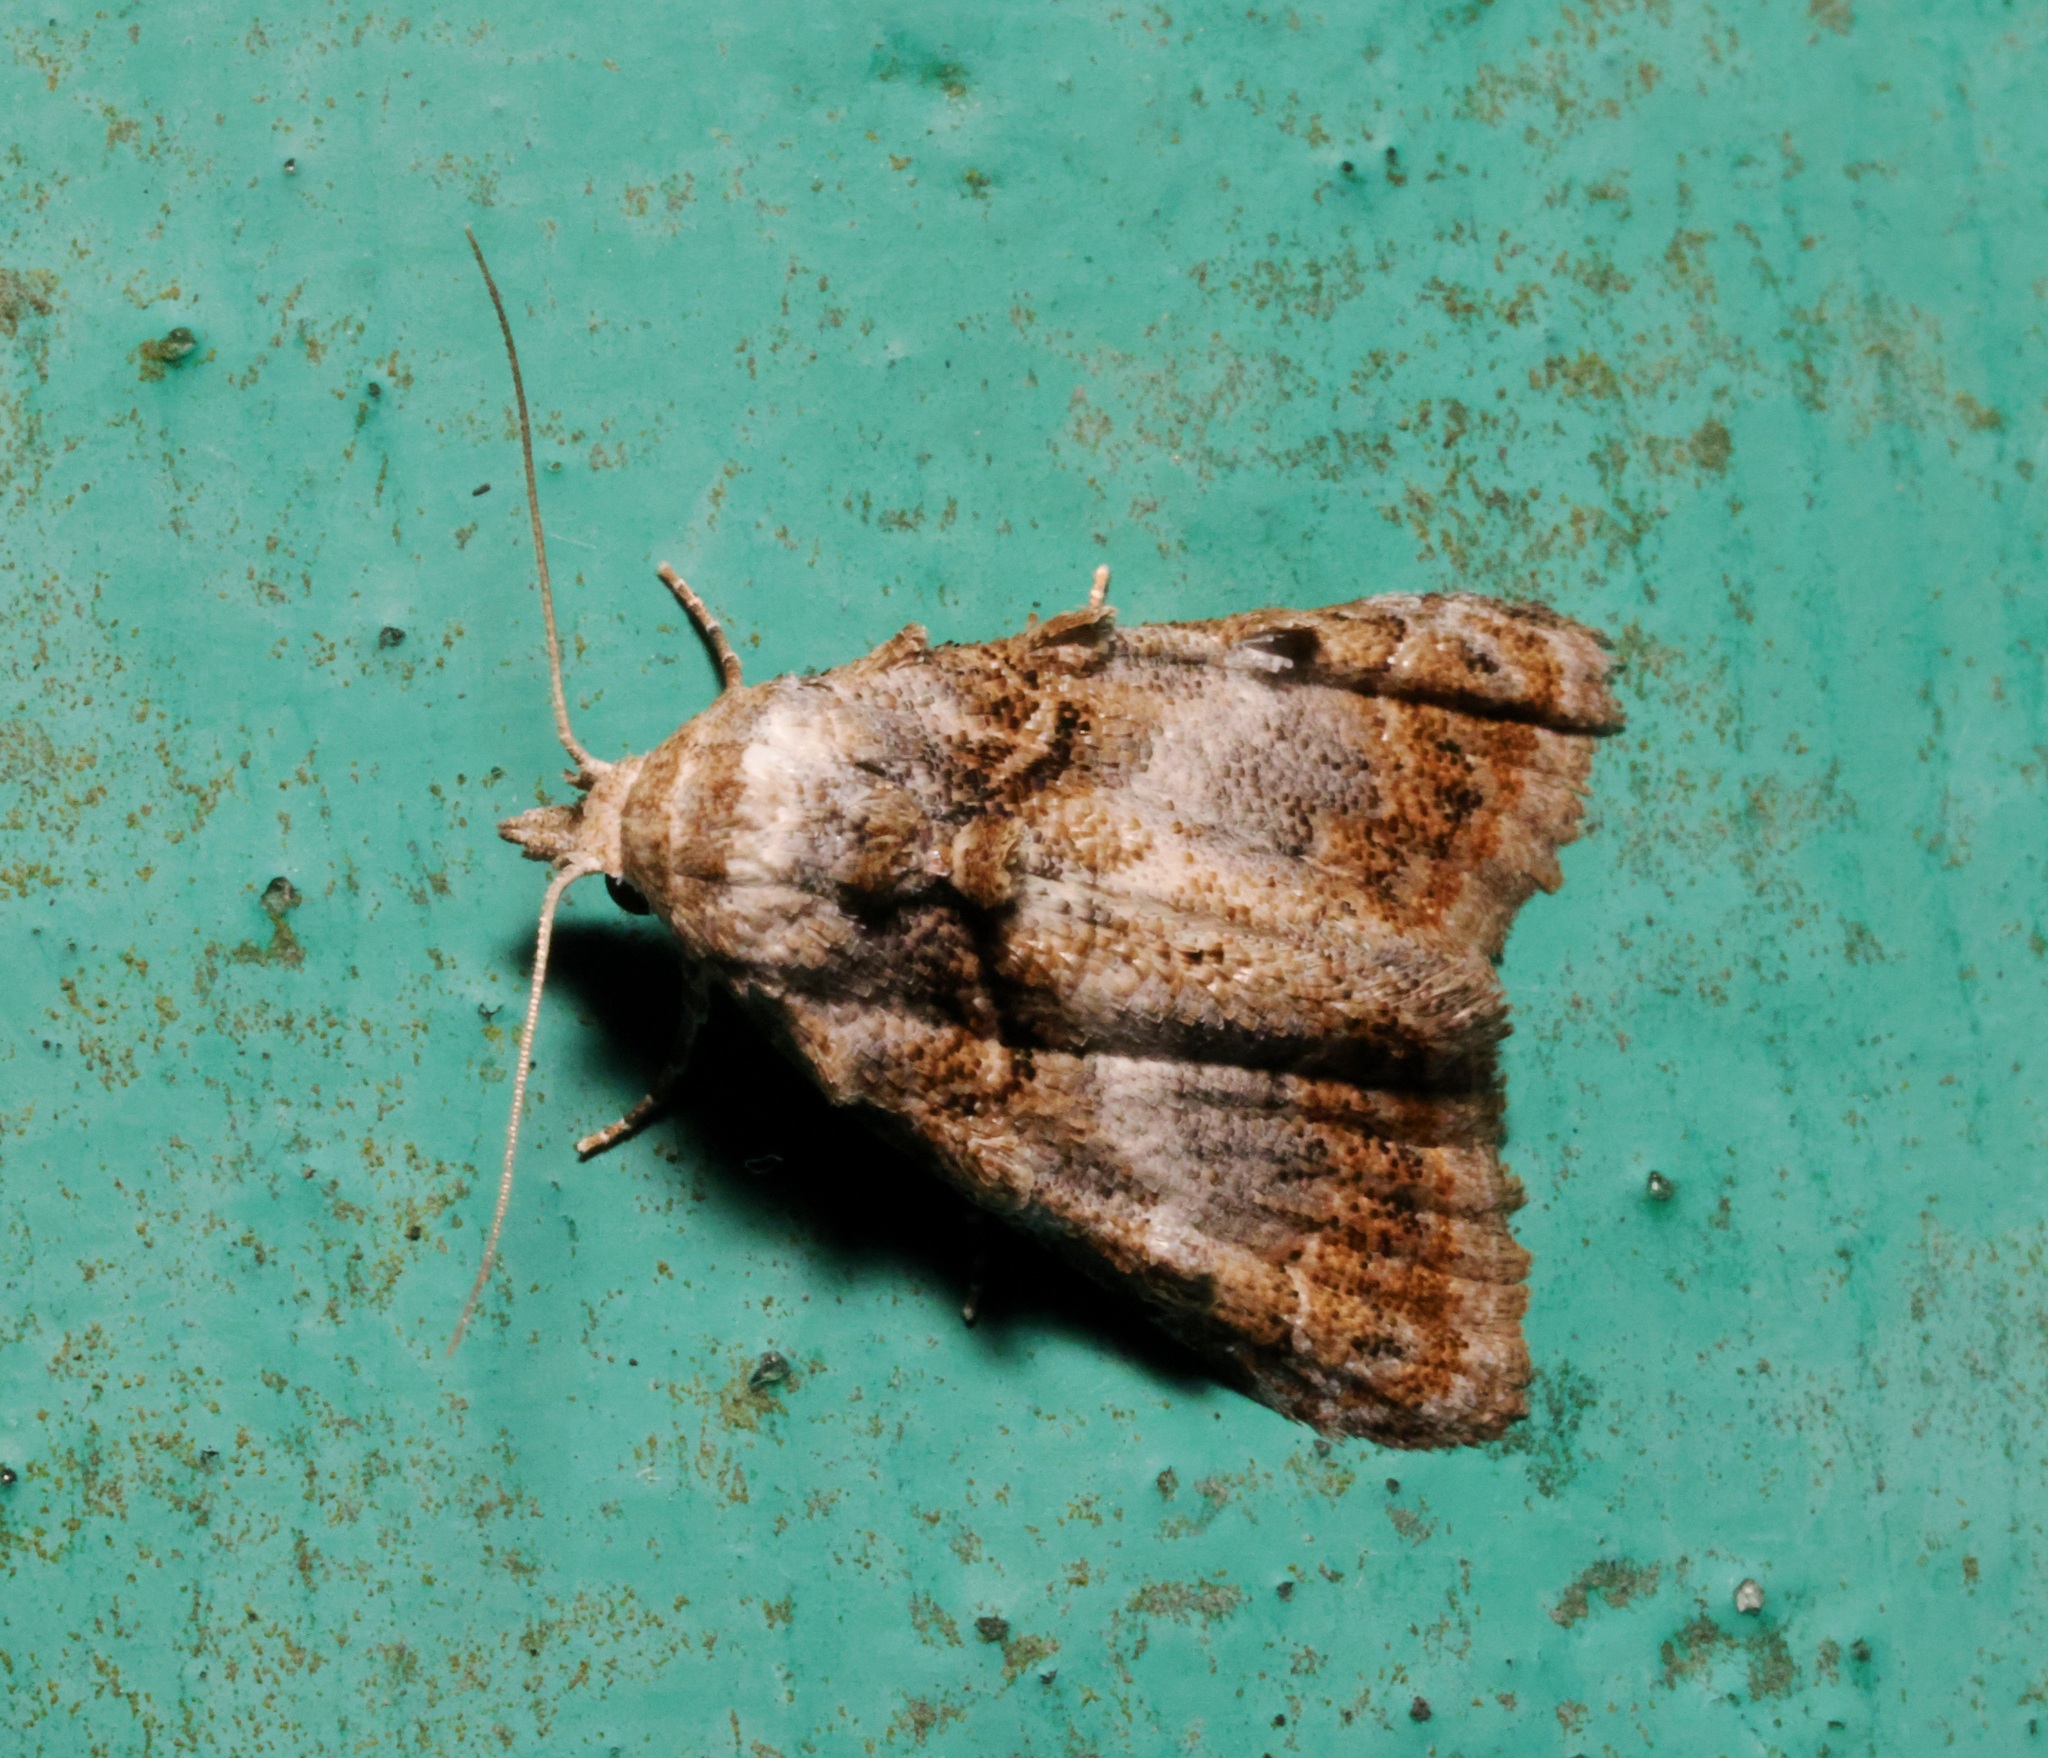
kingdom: Animalia
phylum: Arthropoda
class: Insecta
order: Lepidoptera
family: Nolidae
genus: Nola
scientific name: Nola kanshireiensis
